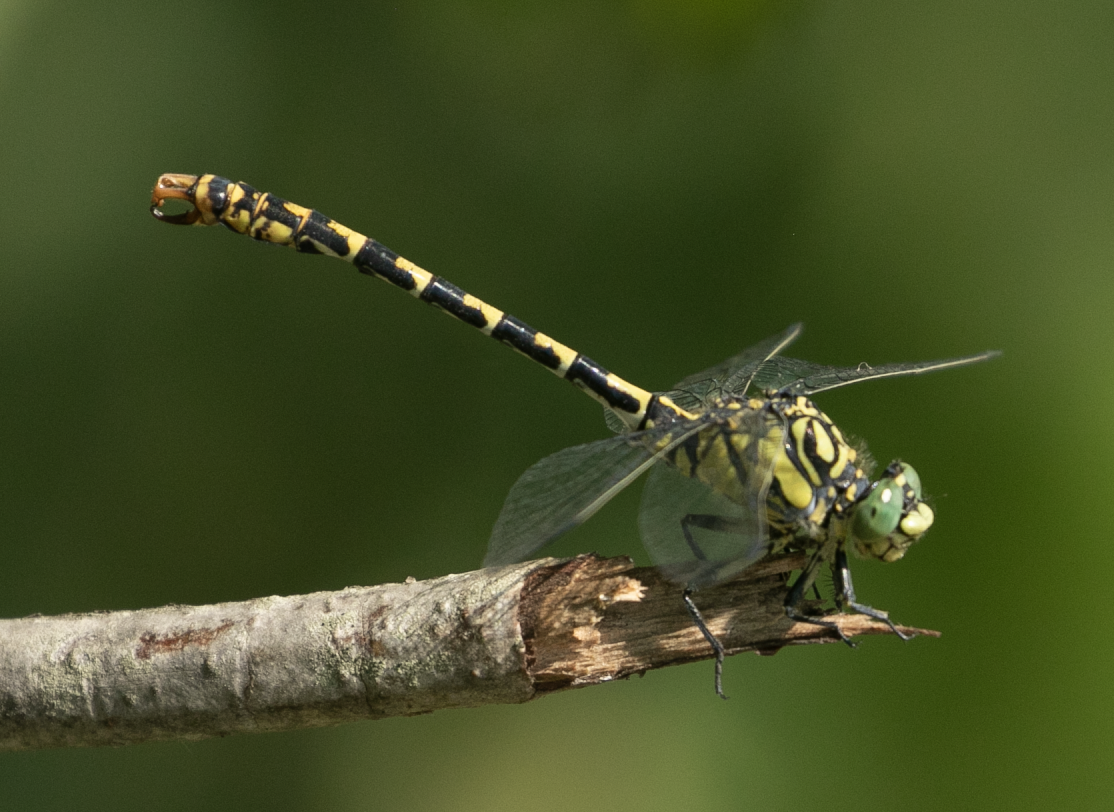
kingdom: Animalia
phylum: Arthropoda
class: Insecta
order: Odonata
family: Gomphidae
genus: Onychogomphus
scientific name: Onychogomphus forcipatus
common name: Small pincertail
